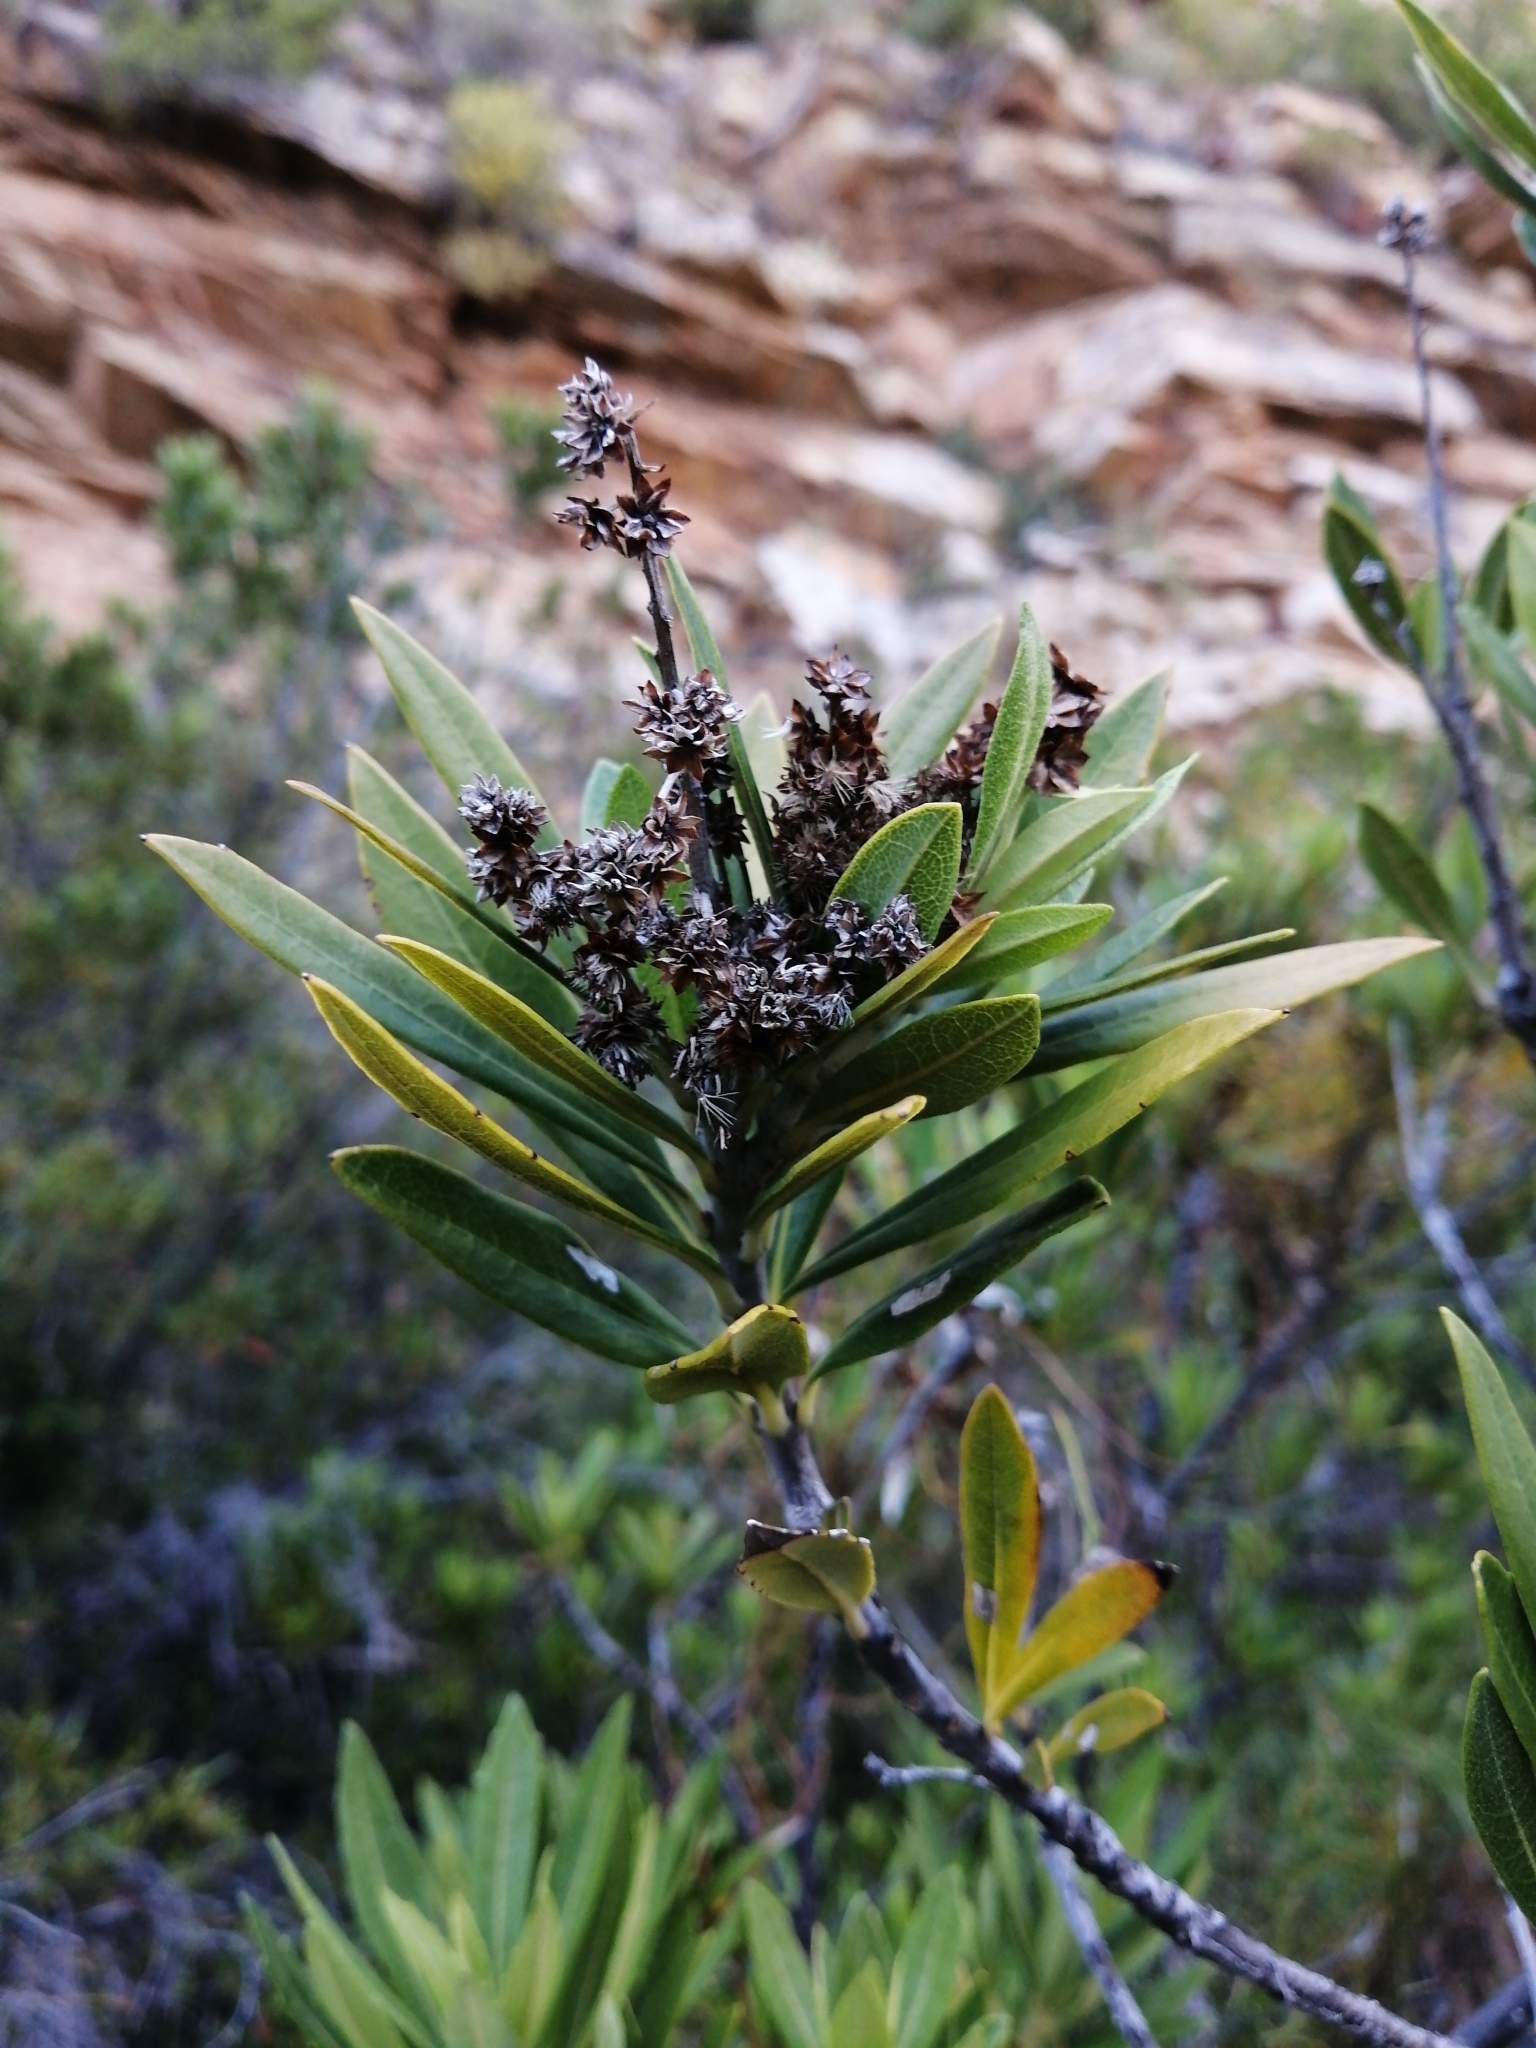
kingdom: Plantae
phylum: Tracheophyta
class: Magnoliopsida
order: Asterales
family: Asteraceae
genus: Brachylaena
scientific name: Brachylaena neriifolia
